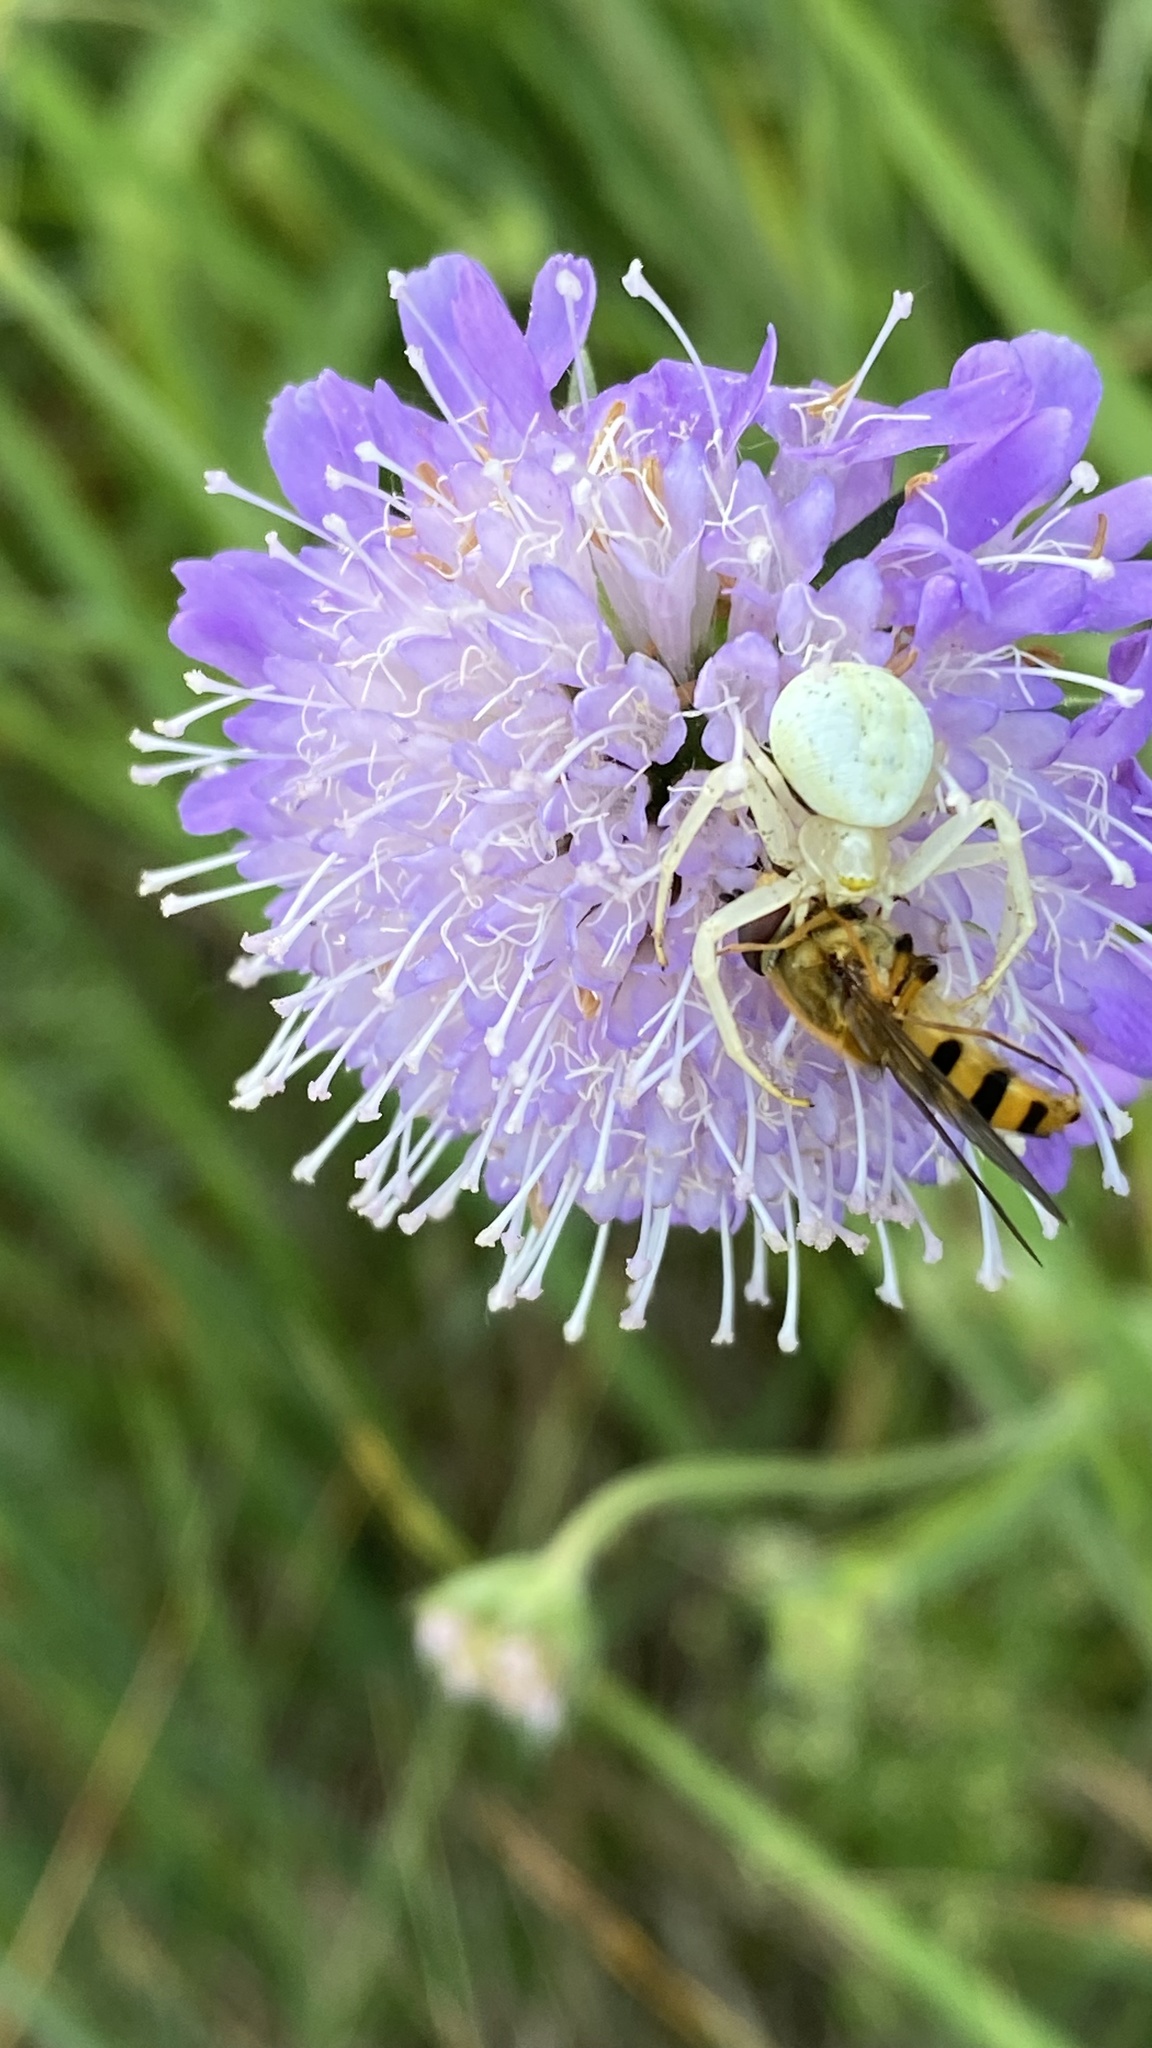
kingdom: Animalia
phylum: Arthropoda
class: Arachnida
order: Araneae
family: Thomisidae
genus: Misumena
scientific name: Misumena vatia
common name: Goldenrod crab spider
